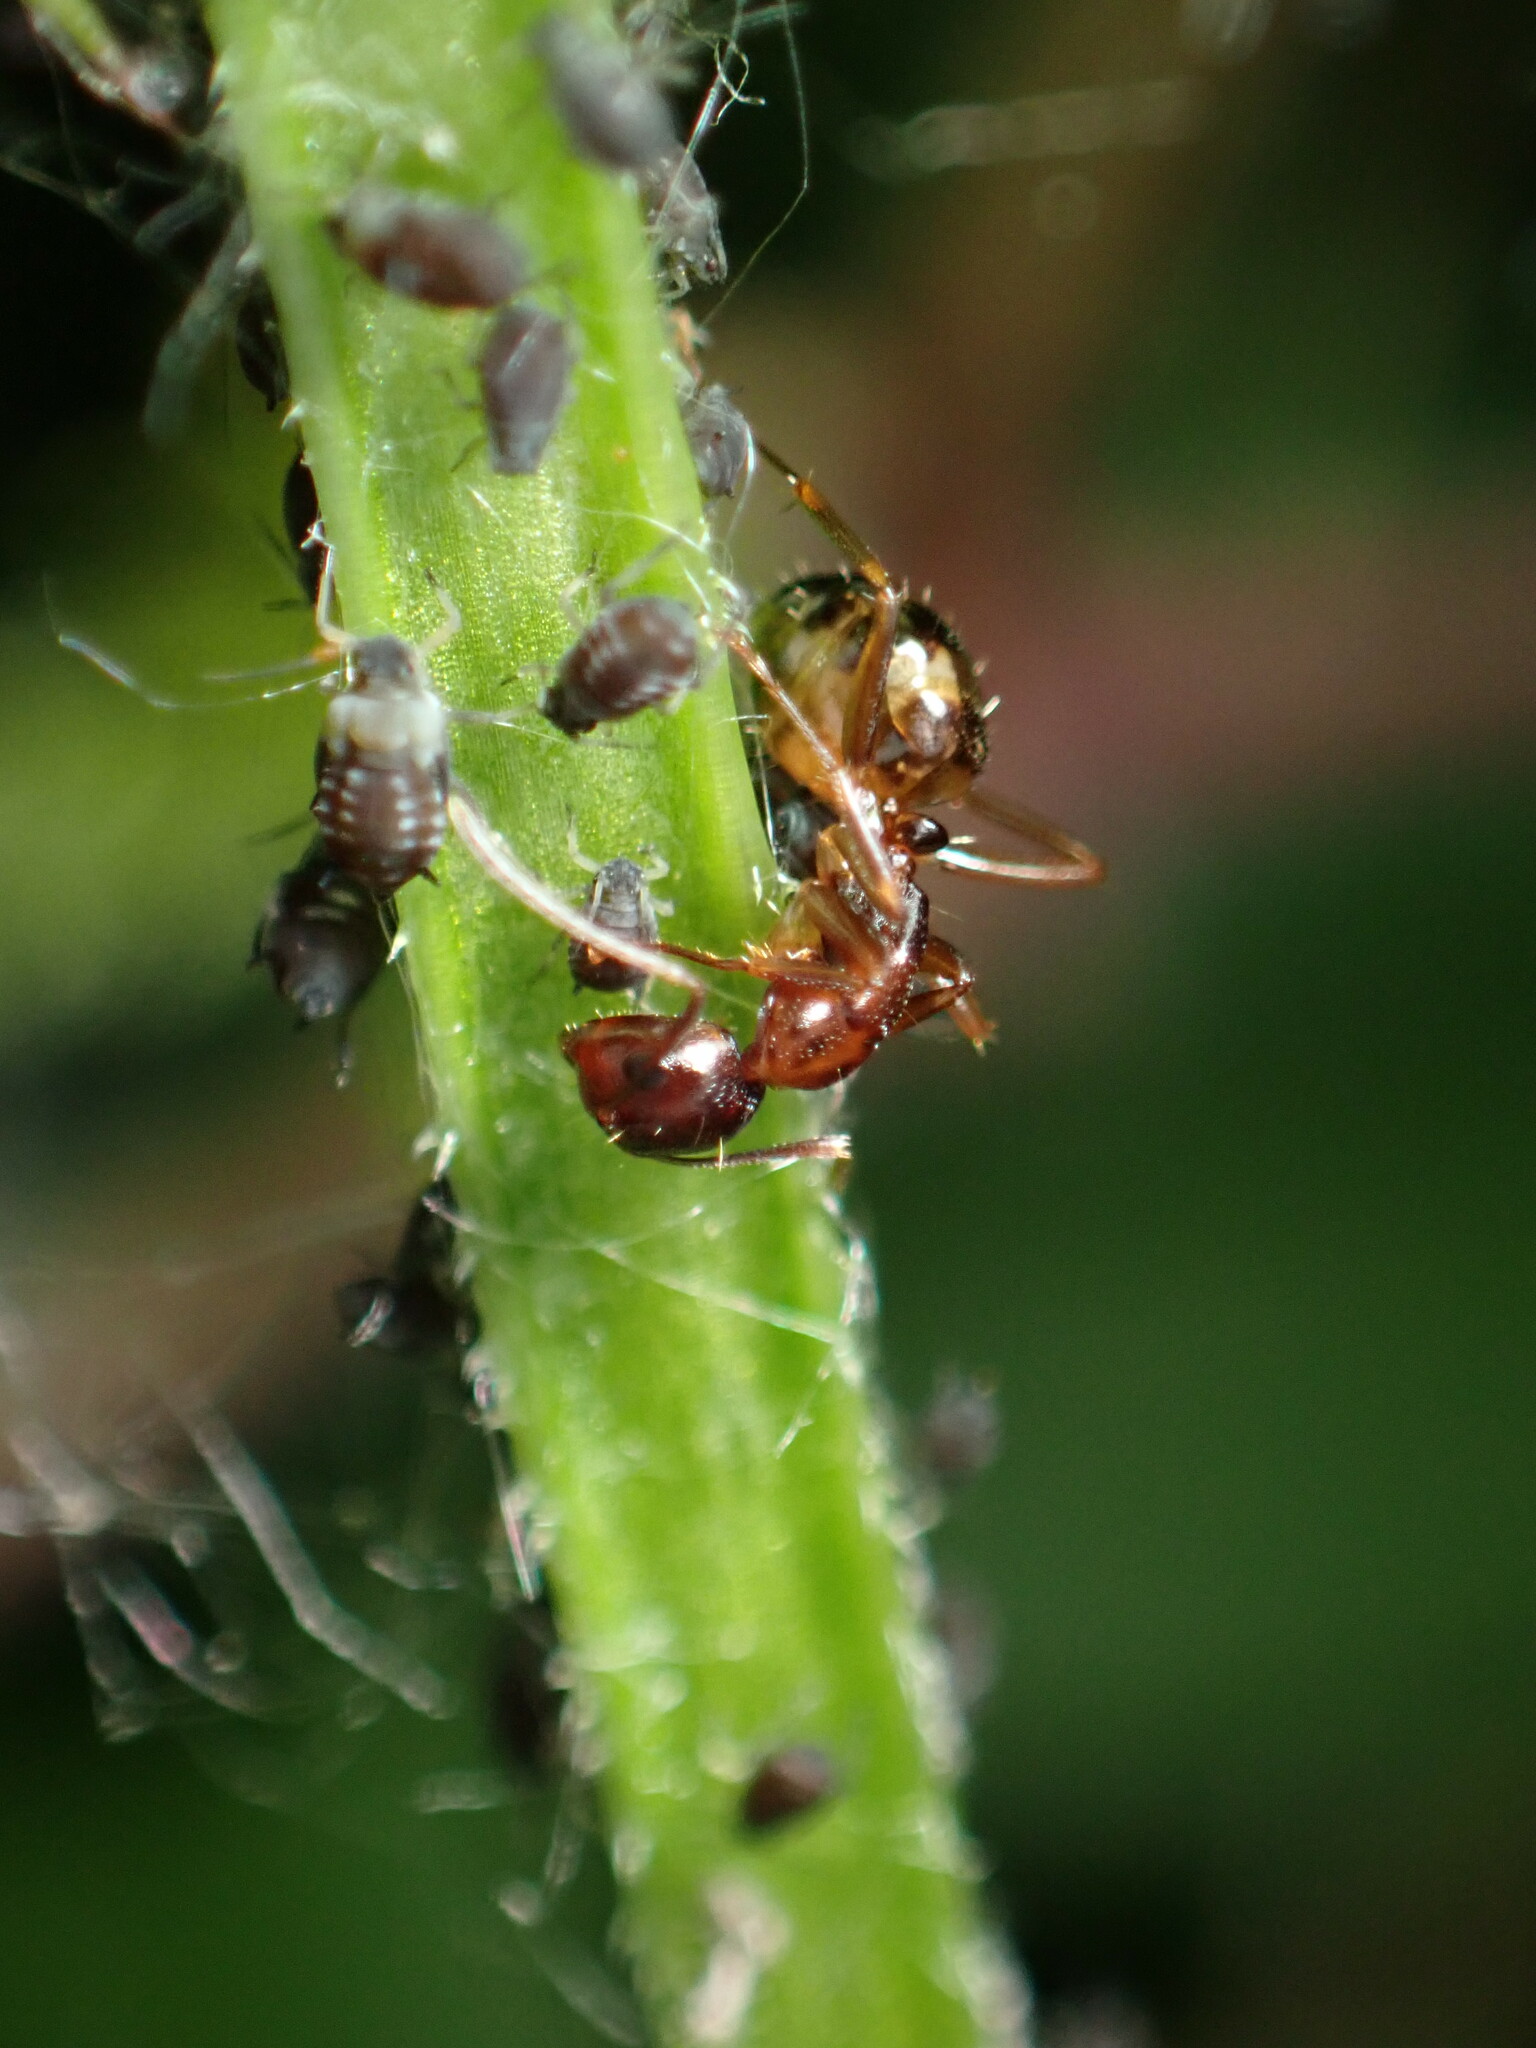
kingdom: Animalia
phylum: Arthropoda
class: Insecta
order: Hymenoptera
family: Formicidae
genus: Camponotus
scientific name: Camponotus subbarbatus
